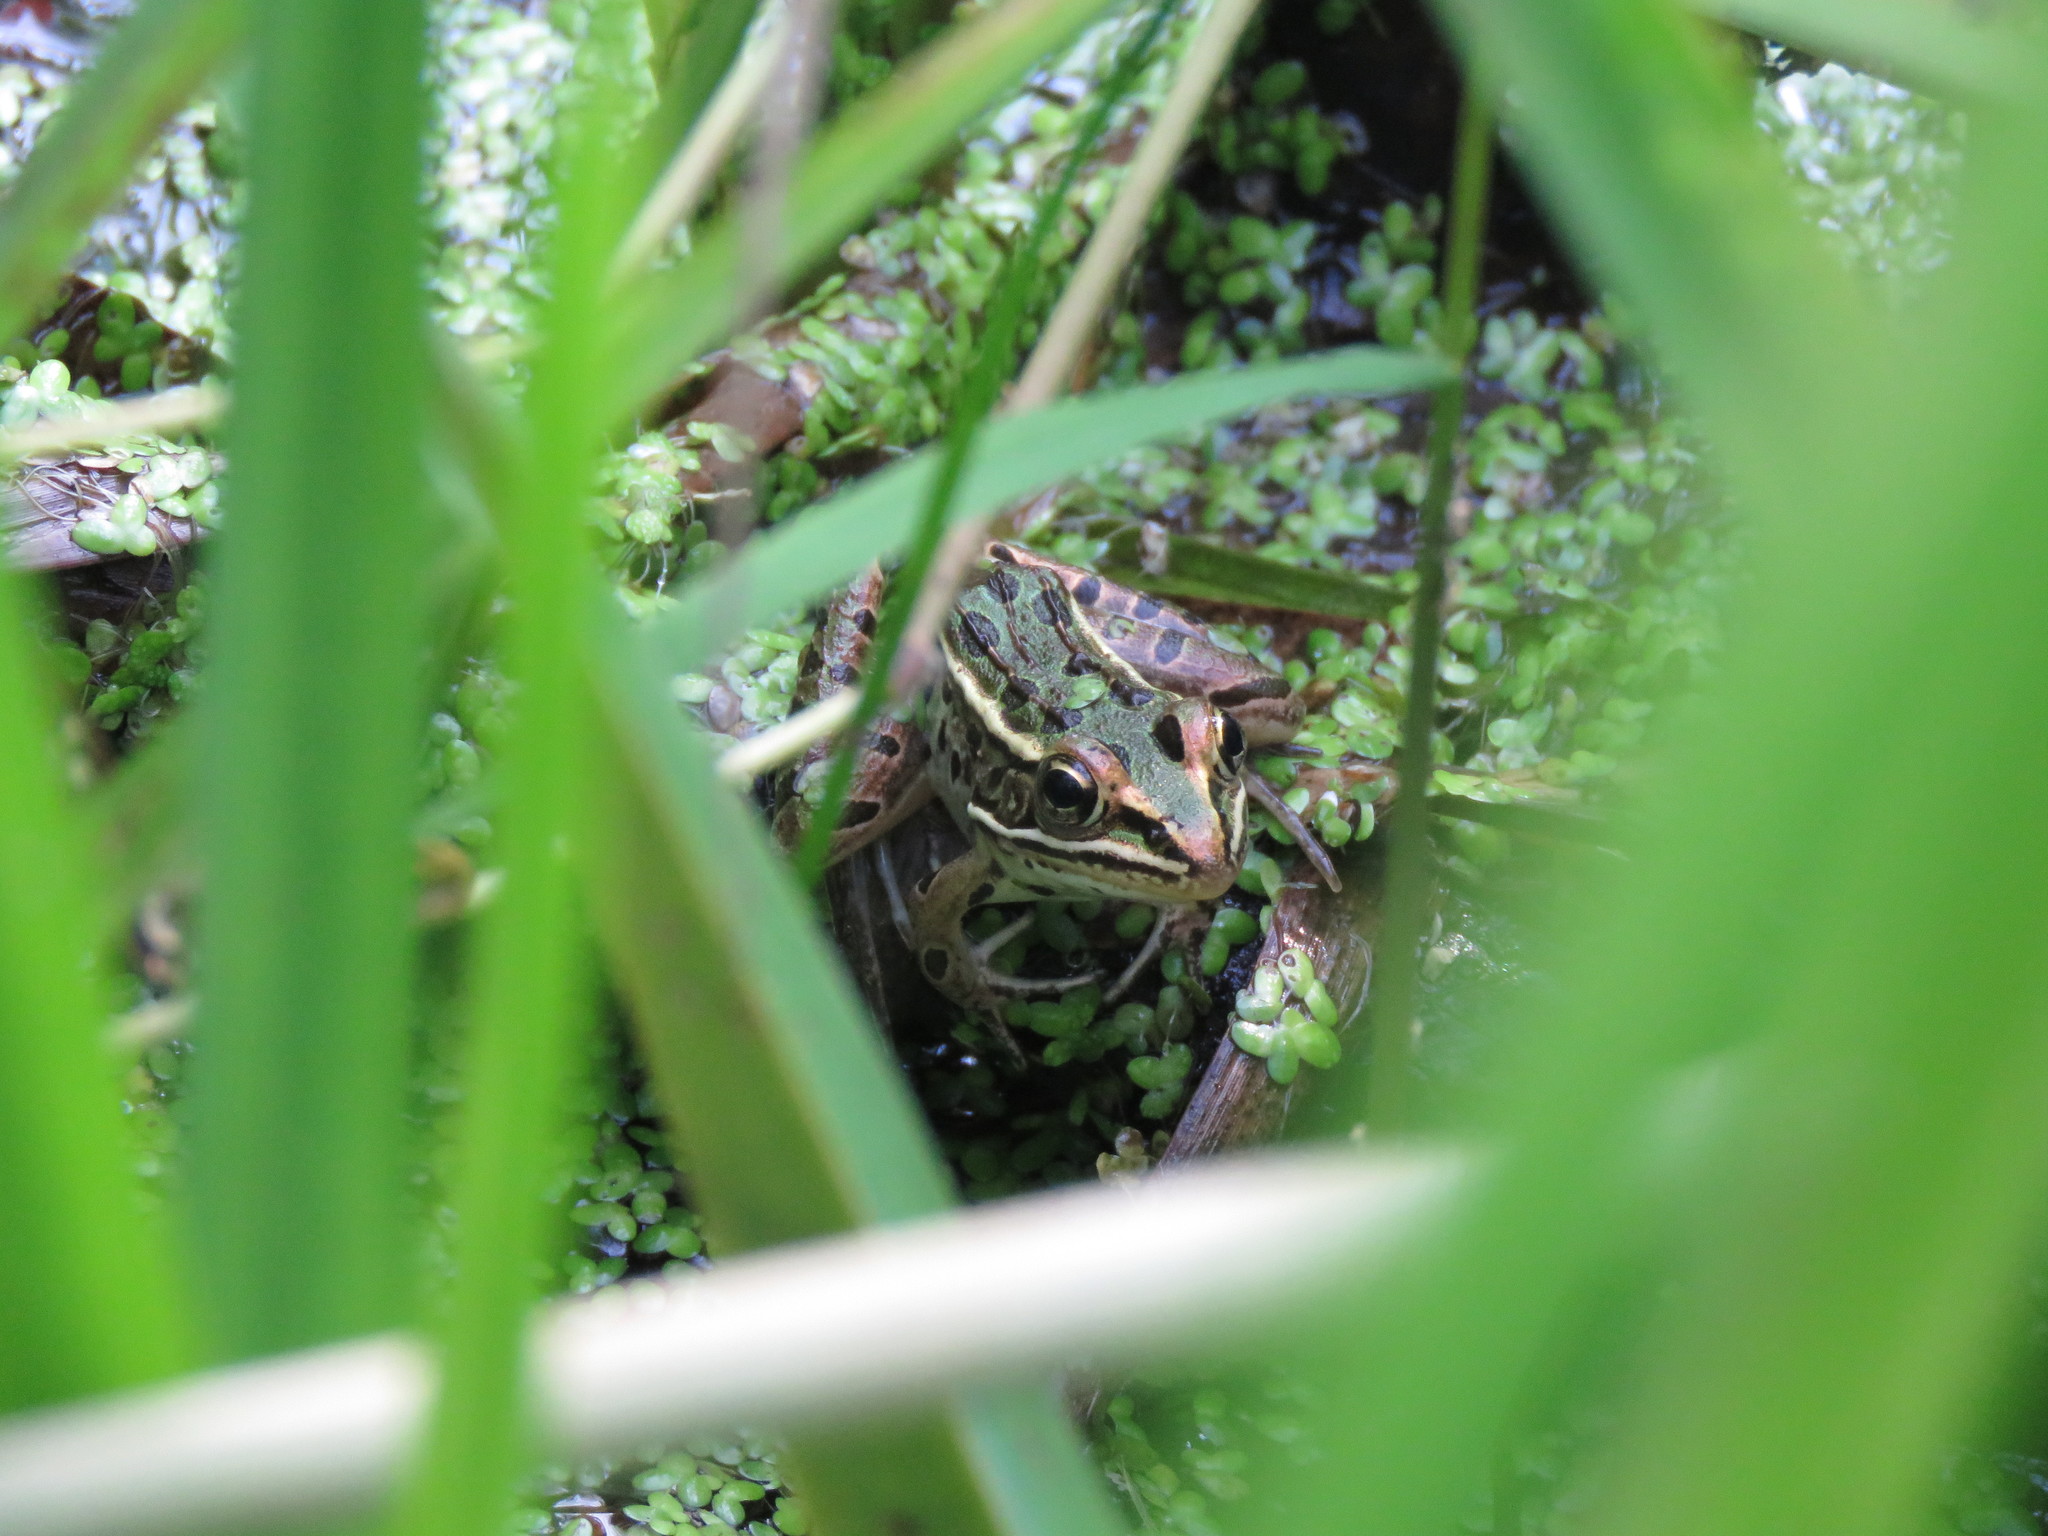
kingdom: Animalia
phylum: Chordata
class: Amphibia
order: Anura
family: Ranidae
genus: Lithobates
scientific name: Lithobates pipiens
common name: Northern leopard frog
